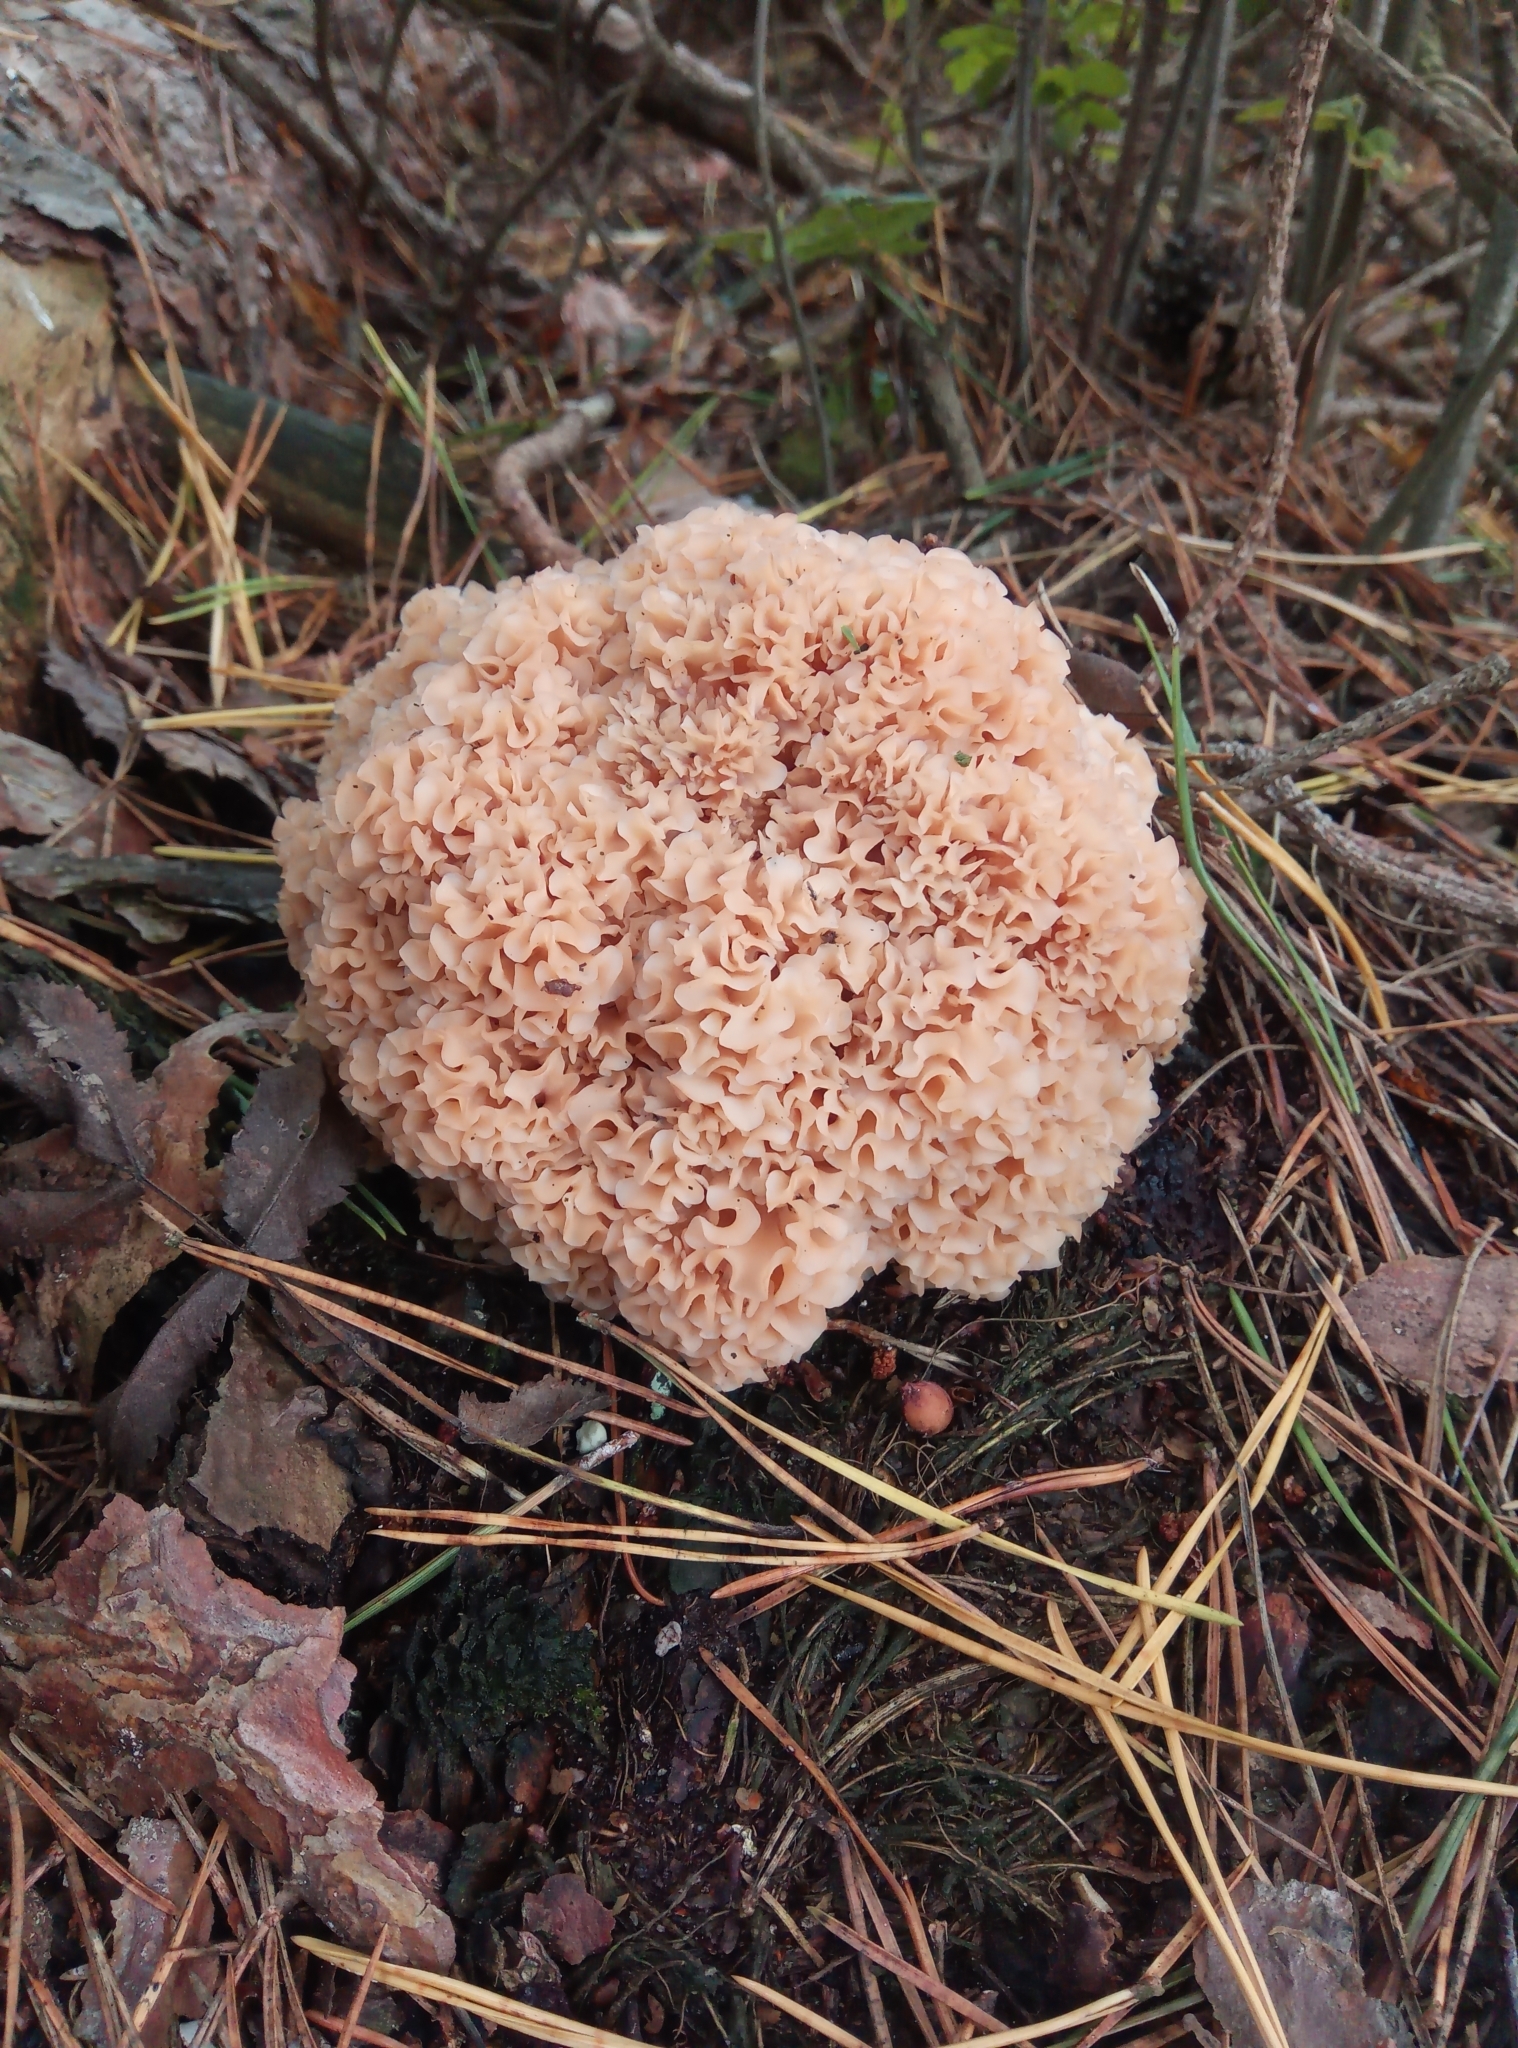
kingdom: Fungi
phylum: Basidiomycota
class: Agaricomycetes
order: Polyporales
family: Sparassidaceae
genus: Sparassis
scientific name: Sparassis crispa
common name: Brain fungus
